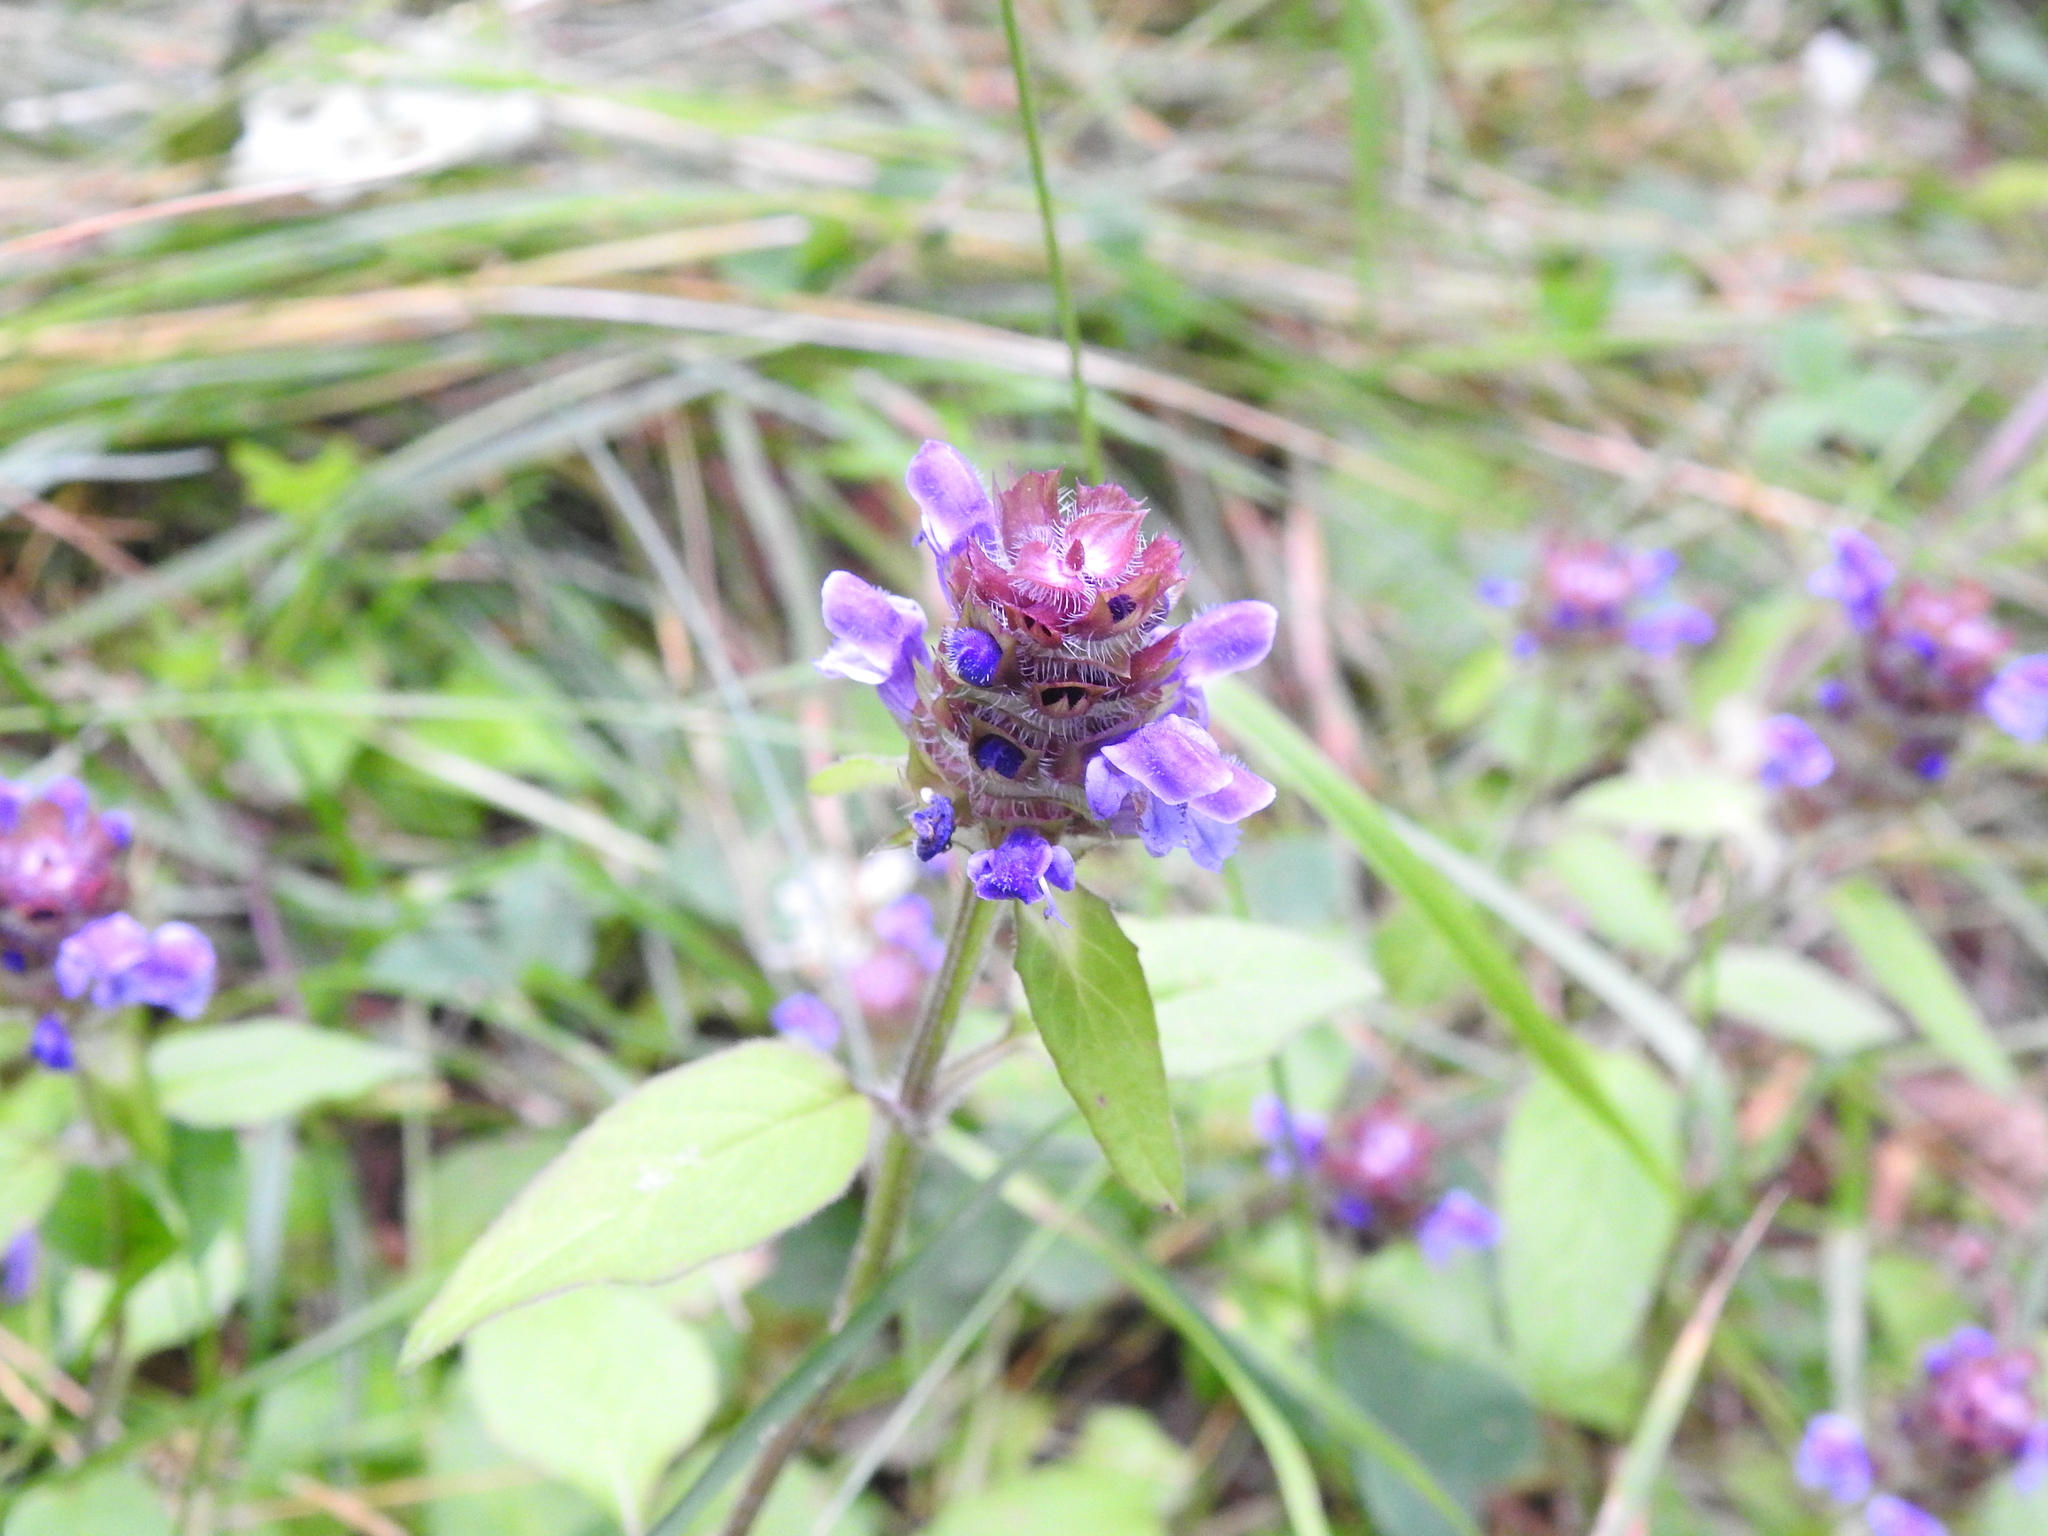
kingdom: Plantae
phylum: Tracheophyta
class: Magnoliopsida
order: Lamiales
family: Lamiaceae
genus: Prunella
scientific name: Prunella vulgaris
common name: Heal-all
